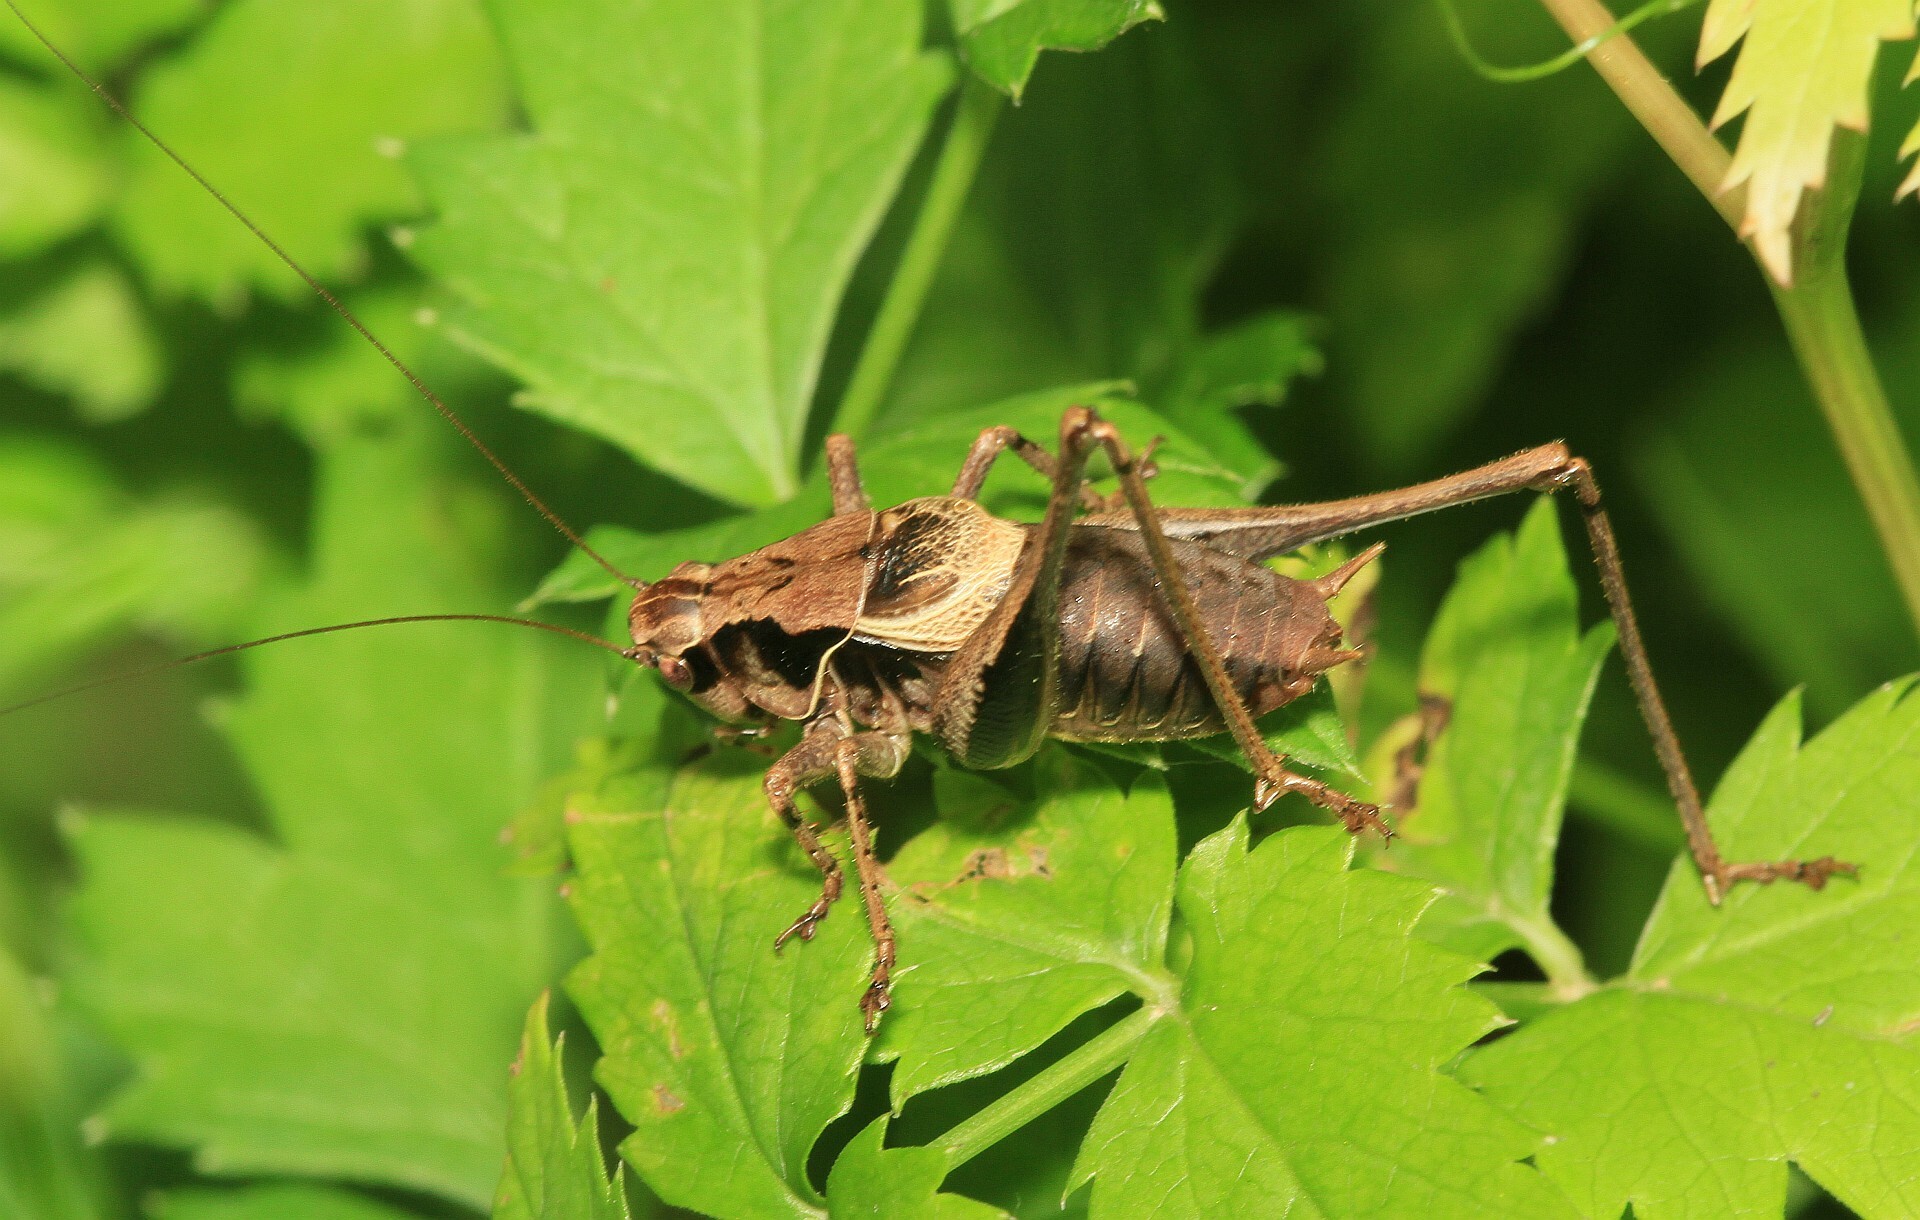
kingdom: Animalia
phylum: Arthropoda
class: Insecta
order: Orthoptera
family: Tettigoniidae
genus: Pholidoptera
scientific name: Pholidoptera griseoaptera
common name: Dark bush-cricket
